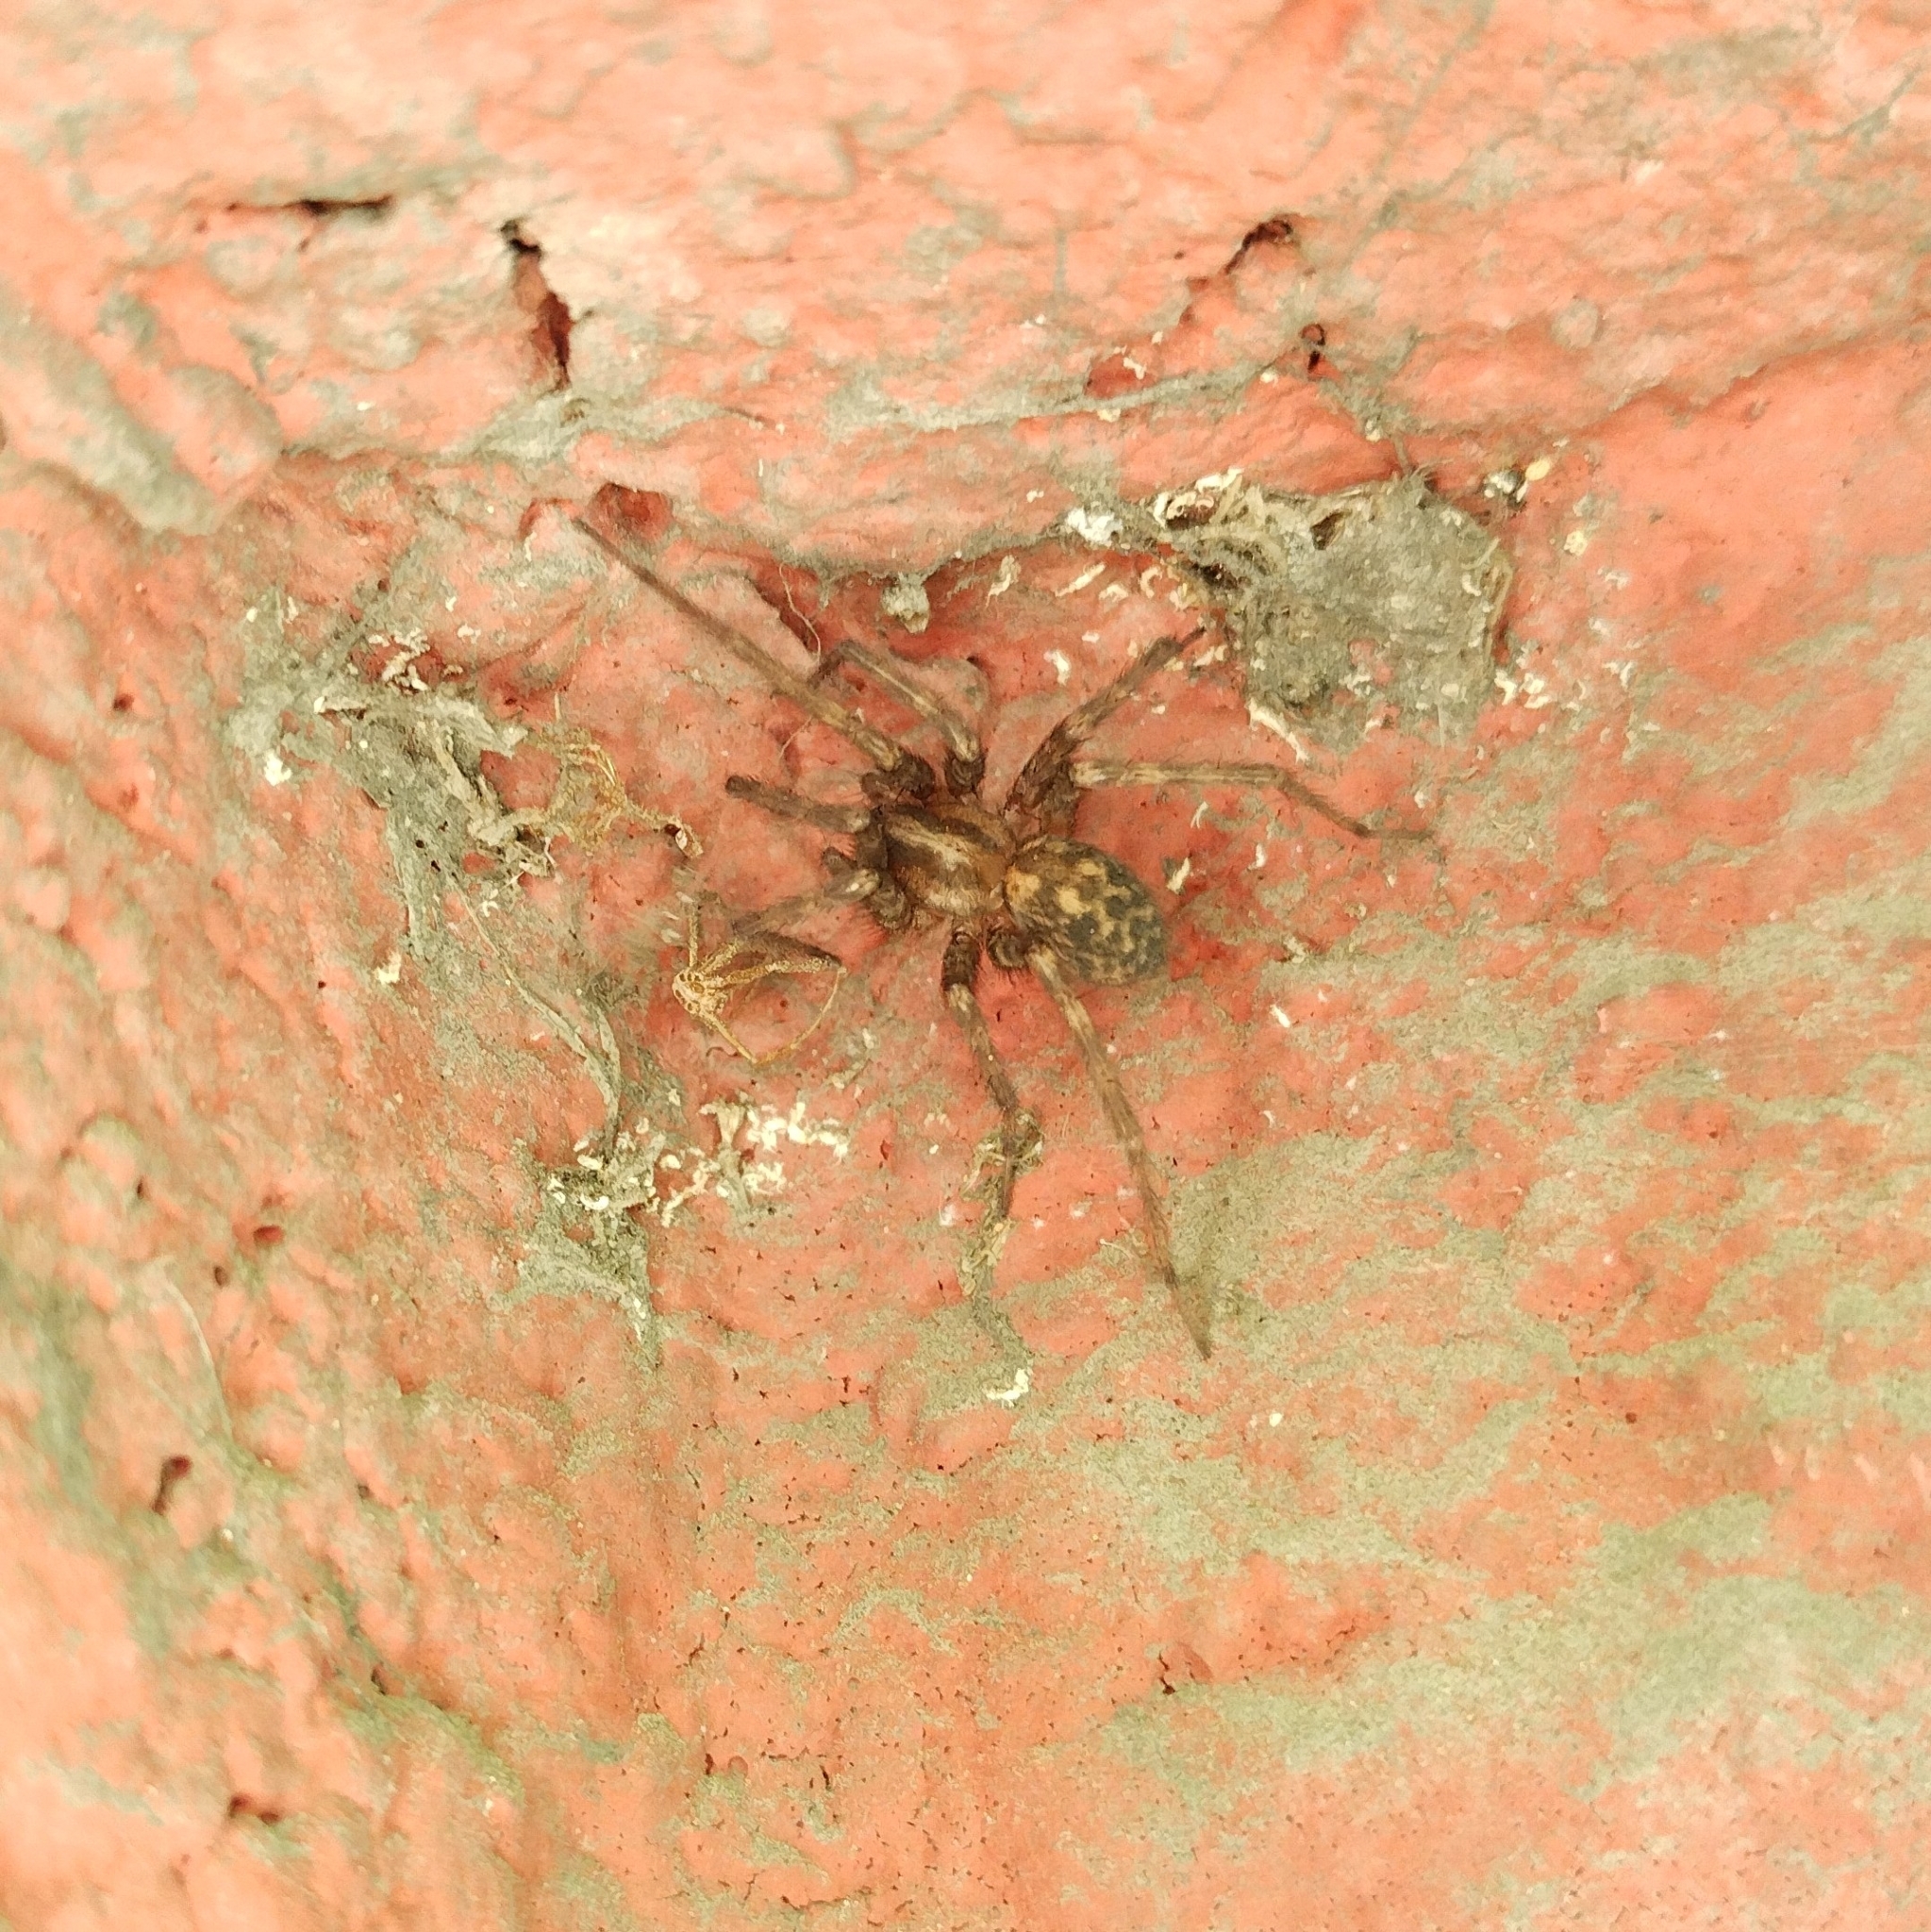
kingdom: Animalia
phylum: Arthropoda
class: Arachnida
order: Araneae
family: Agelenidae
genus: Tegenaria
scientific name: Tegenaria domestica
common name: Barn funnel weaver
